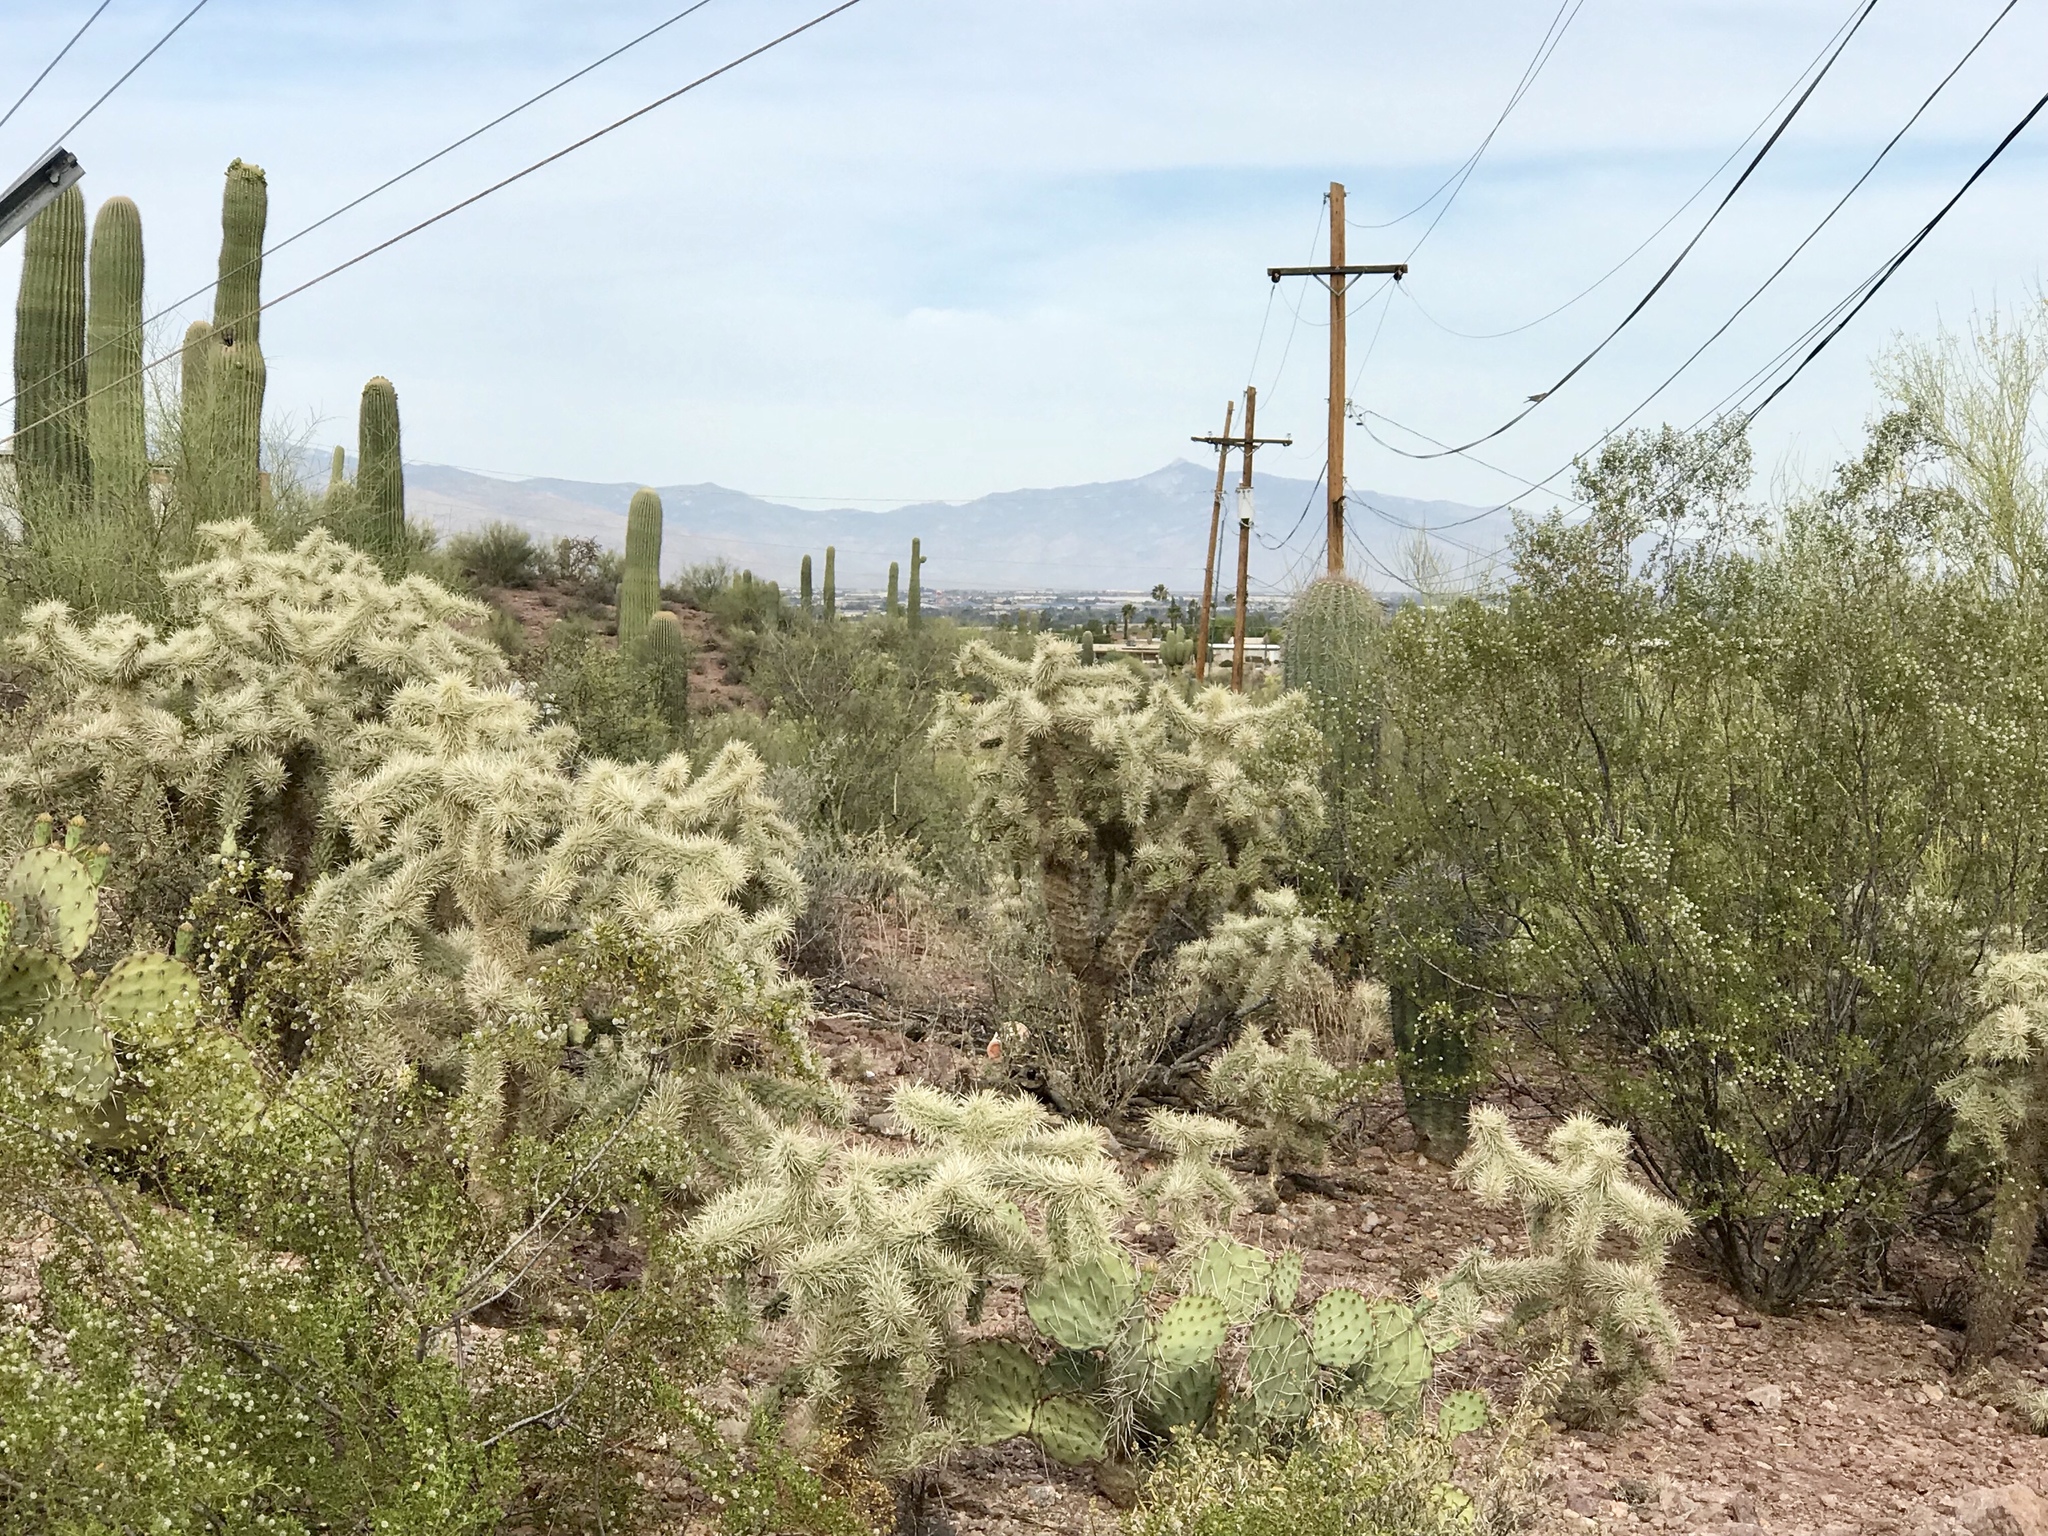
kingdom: Plantae
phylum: Tracheophyta
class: Magnoliopsida
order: Caryophyllales
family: Cactaceae
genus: Cylindropuntia
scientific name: Cylindropuntia fulgida
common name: Jumping cholla
